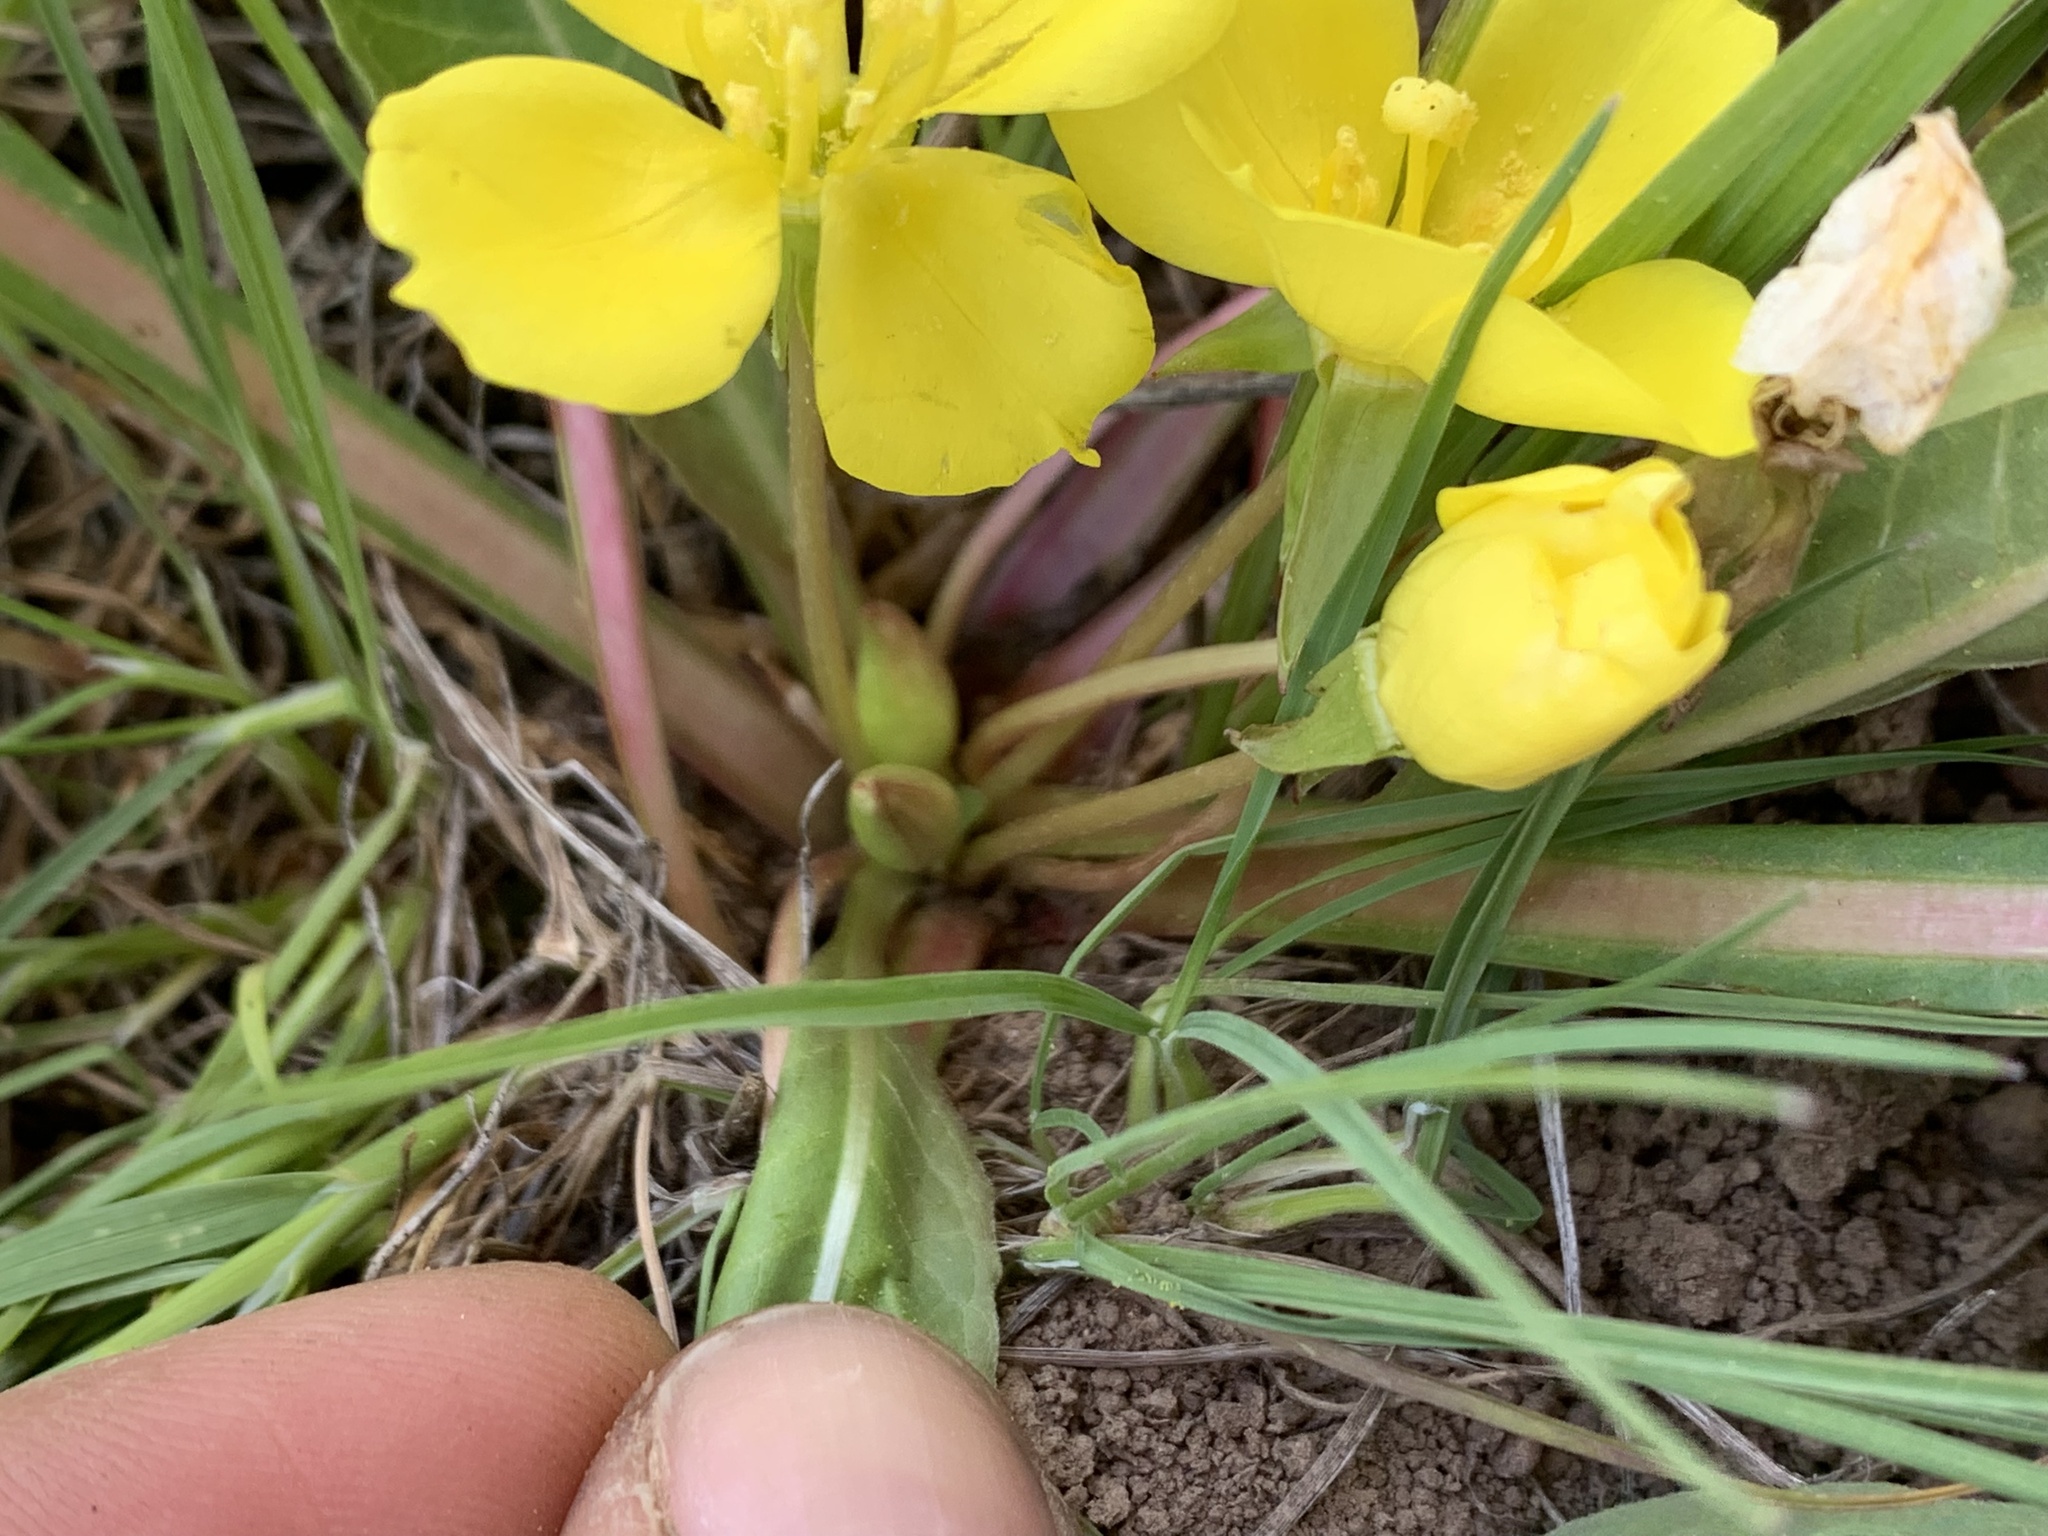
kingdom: Plantae
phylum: Tracheophyta
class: Magnoliopsida
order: Myrtales
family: Onagraceae
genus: Taraxia
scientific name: Taraxia subacaulis
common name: Diffuseflower evening primrose
